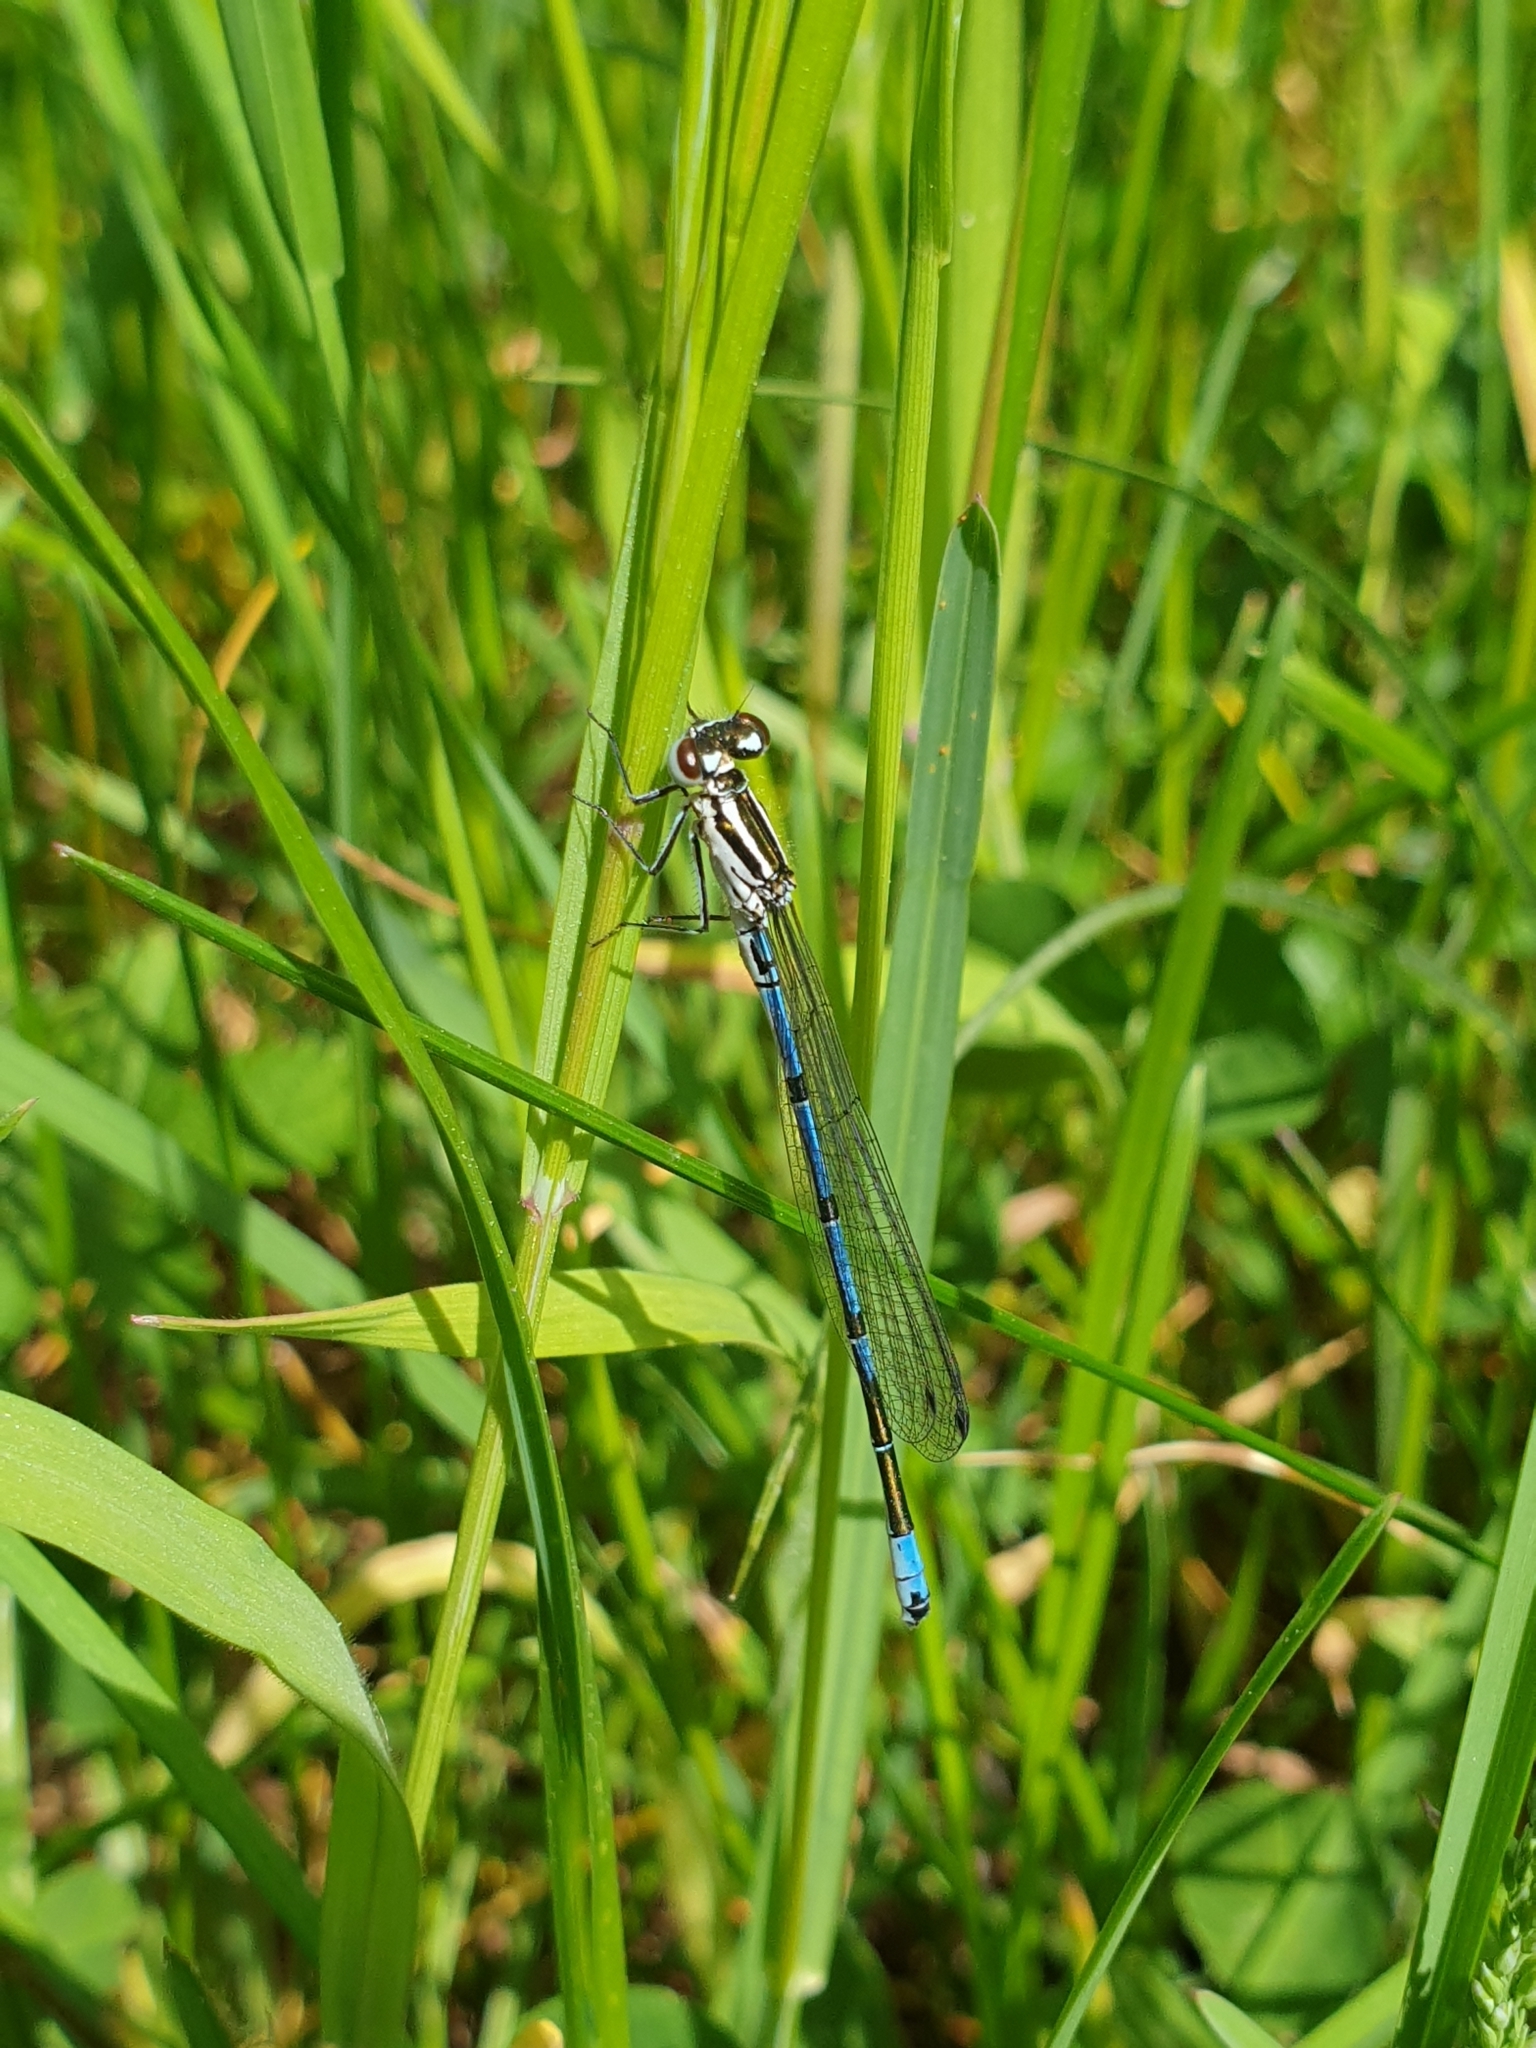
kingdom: Animalia
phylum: Arthropoda
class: Insecta
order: Odonata
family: Coenagrionidae
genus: Coenagrion
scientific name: Coenagrion puella
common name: Azure damselfly
